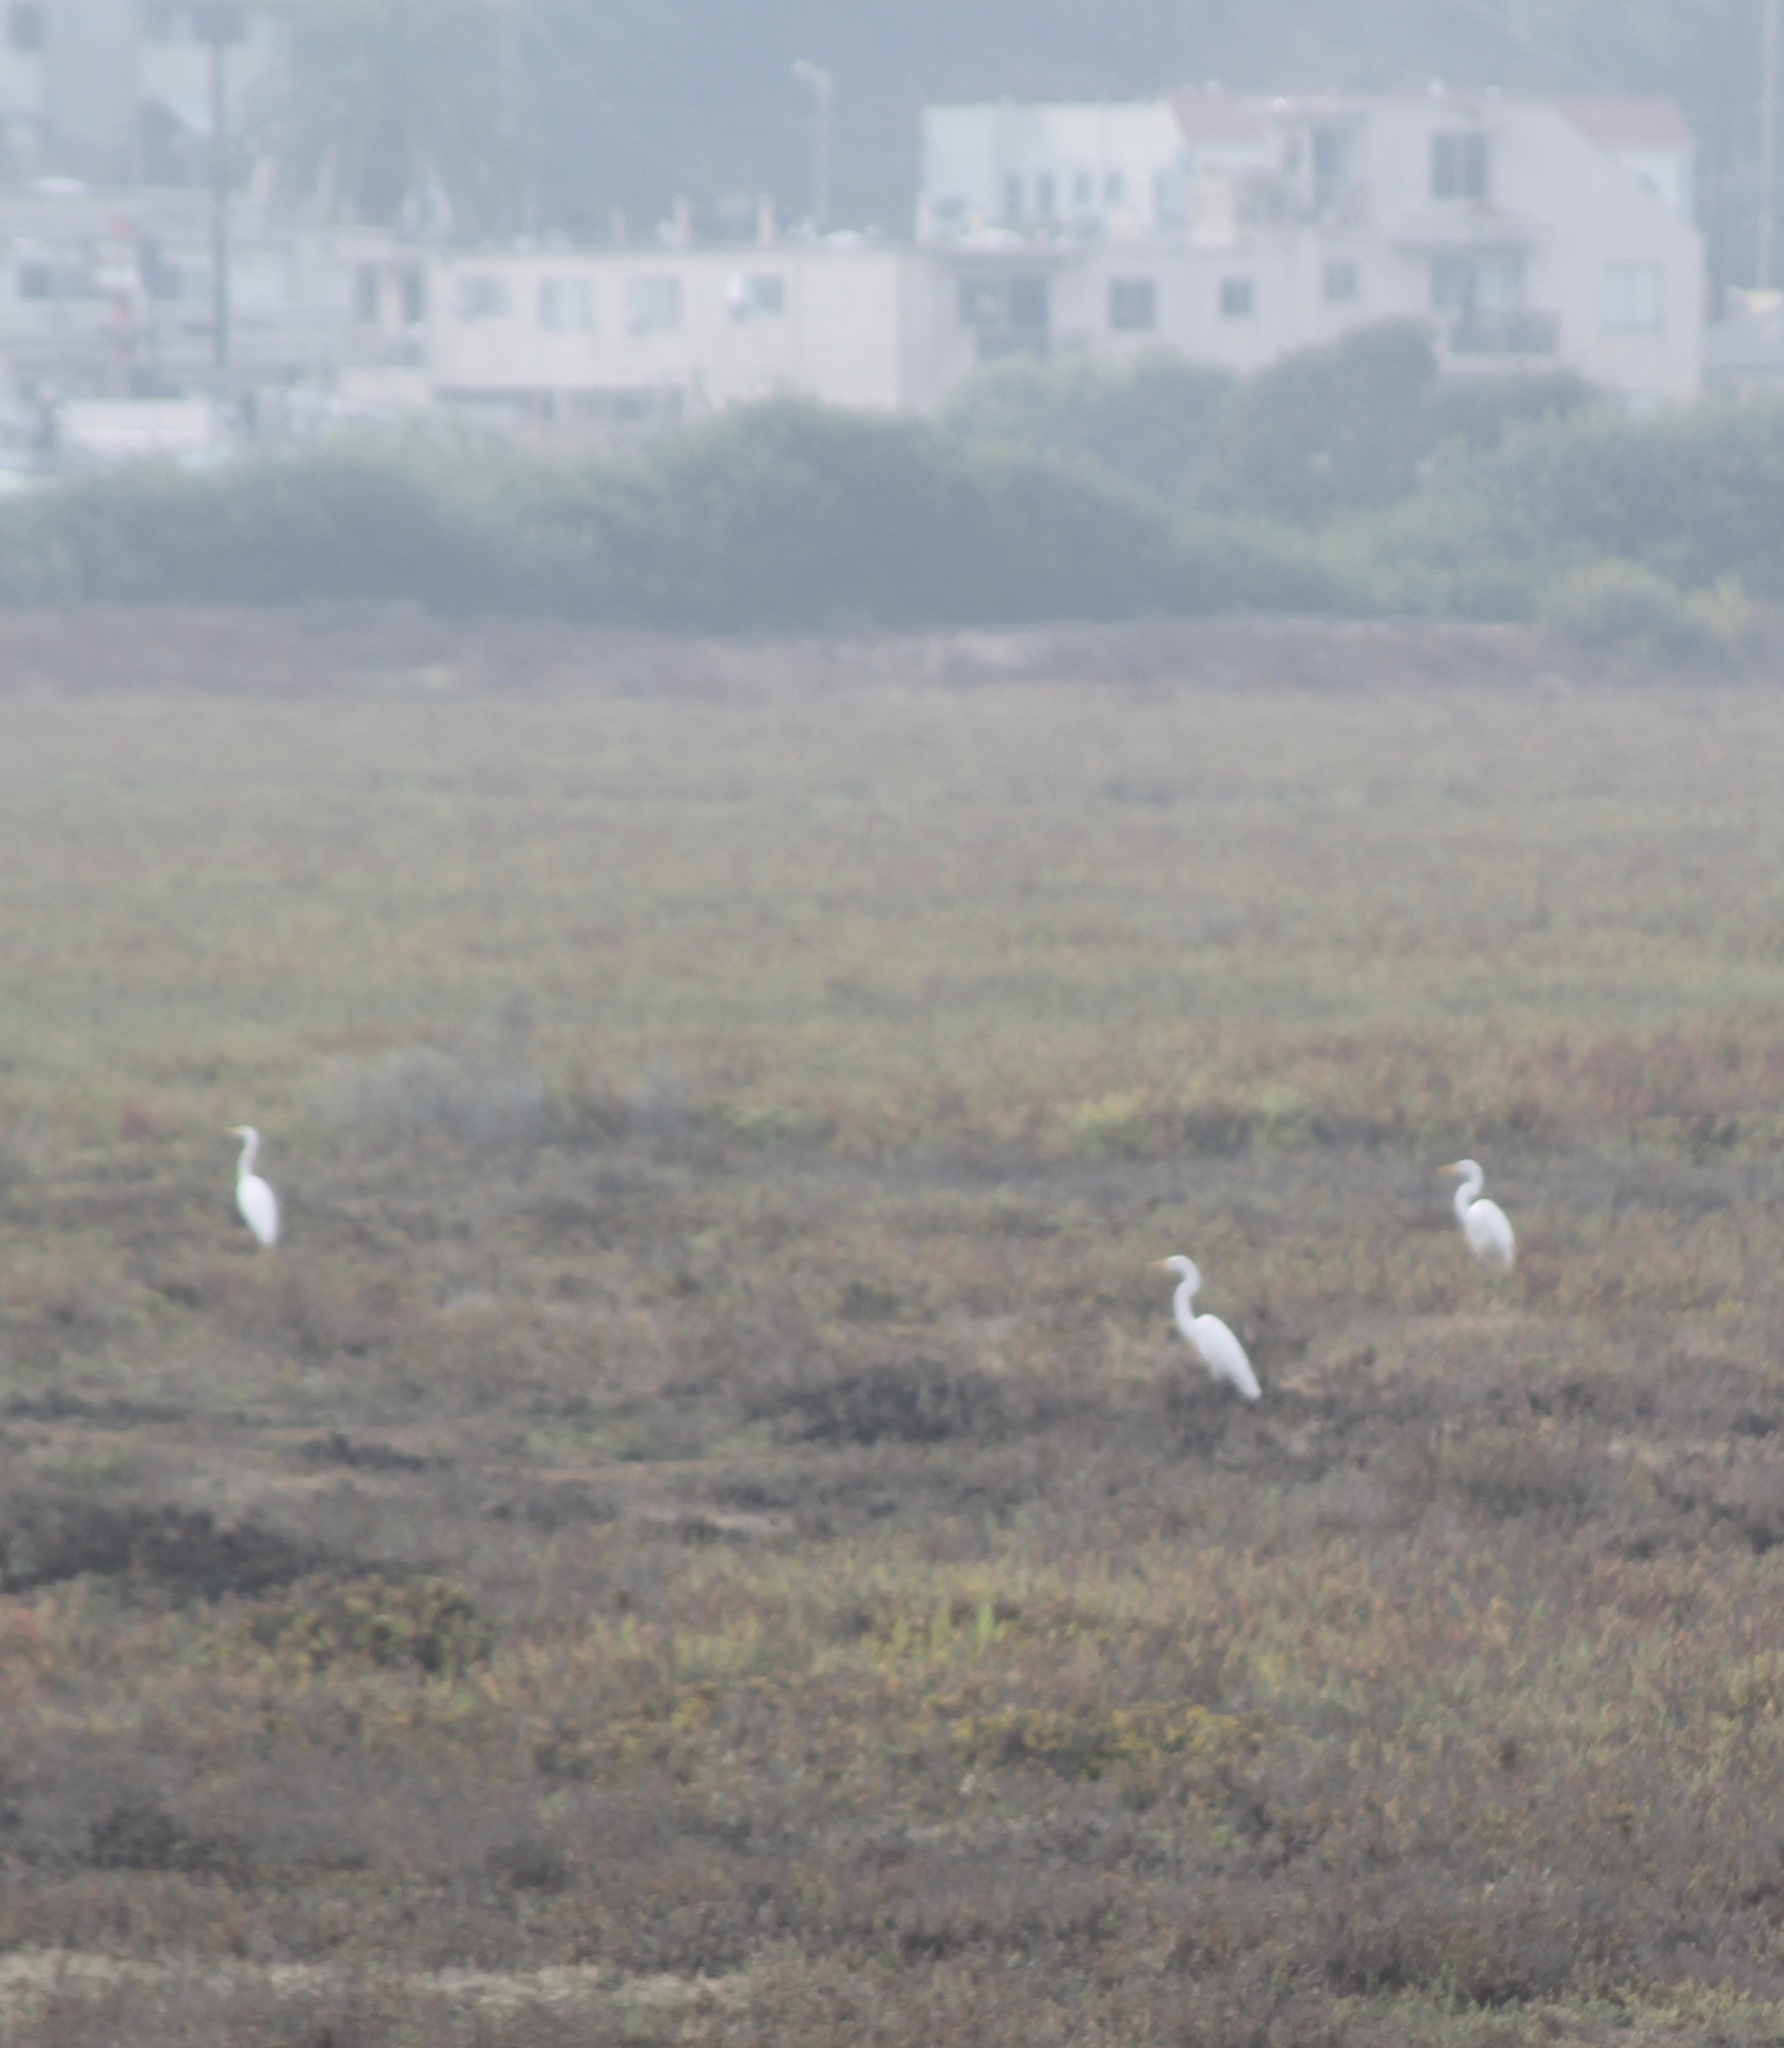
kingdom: Animalia
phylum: Chordata
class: Aves
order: Pelecaniformes
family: Ardeidae
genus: Ardea
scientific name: Ardea alba
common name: Great egret
